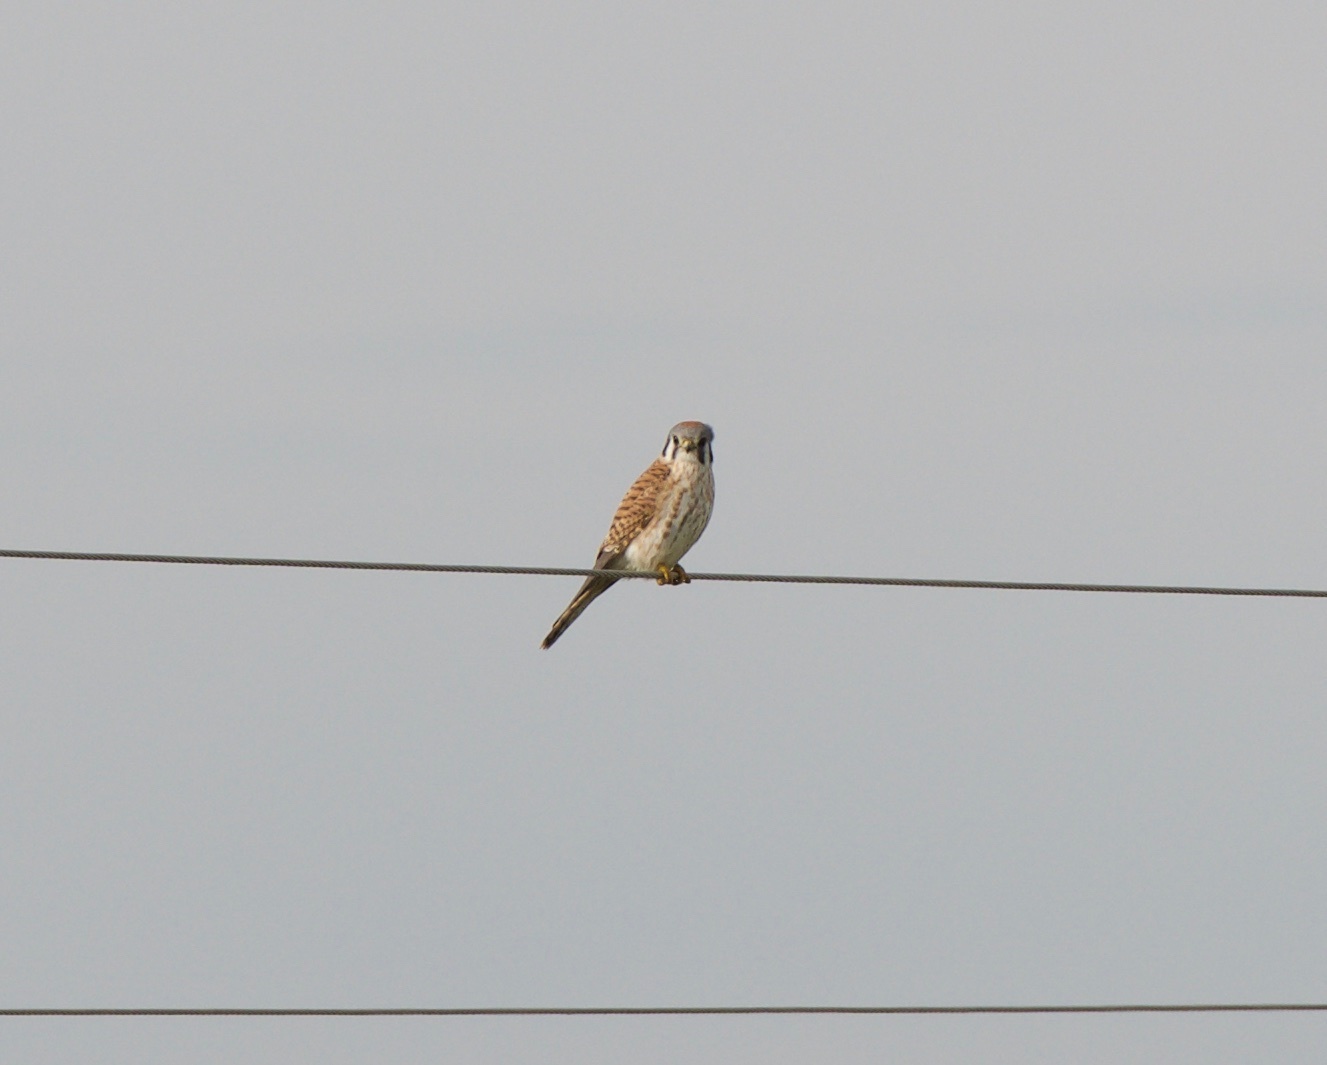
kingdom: Animalia
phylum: Chordata
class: Aves
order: Falconiformes
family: Falconidae
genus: Falco
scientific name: Falco sparverius
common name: American kestrel
